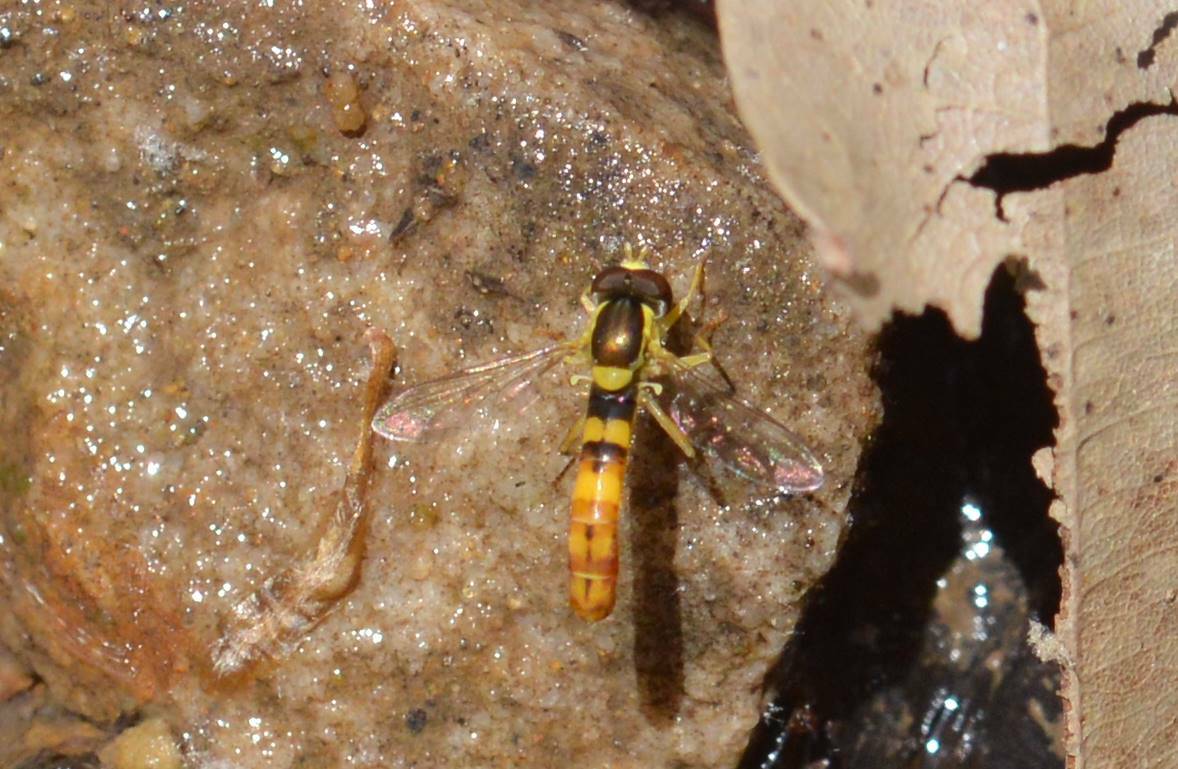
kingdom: Animalia
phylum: Arthropoda
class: Insecta
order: Diptera
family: Syrphidae
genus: Sphaerophoria
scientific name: Sphaerophoria scripta
